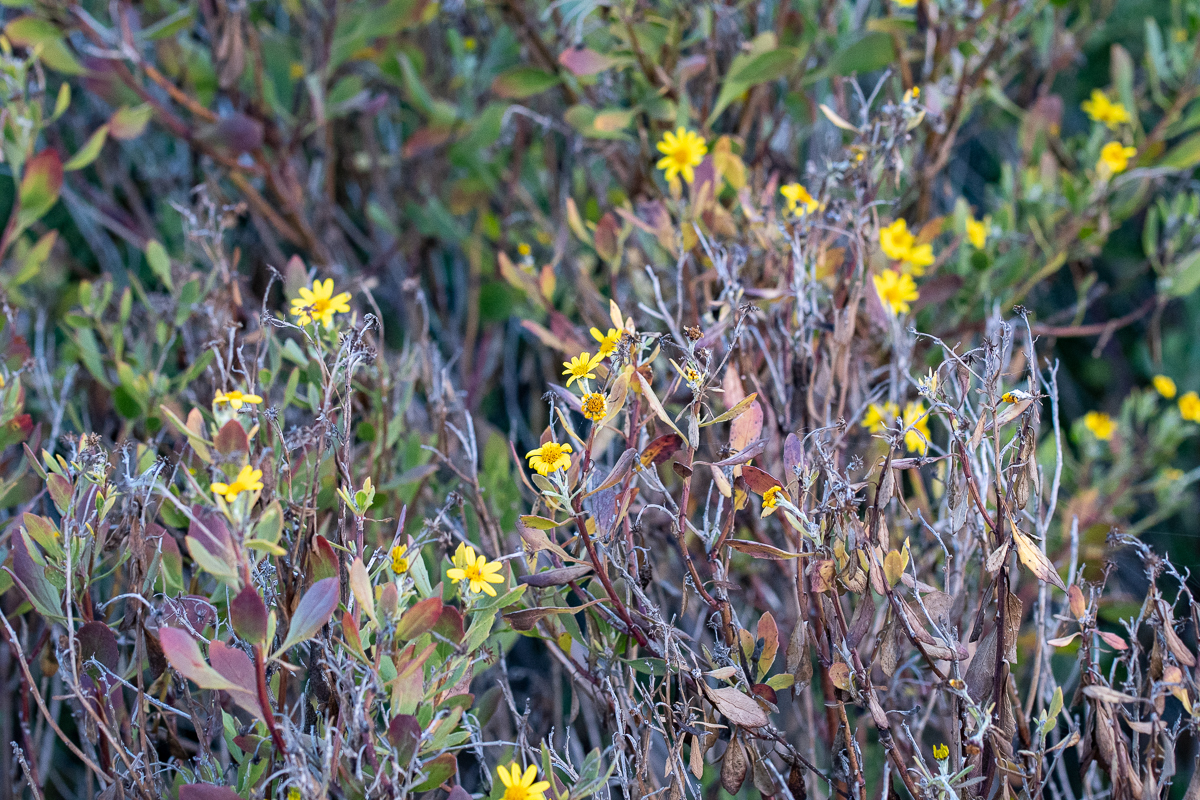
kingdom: Plantae
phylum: Tracheophyta
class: Magnoliopsida
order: Asterales
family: Asteraceae
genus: Osteospermum
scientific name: Osteospermum moniliferum
